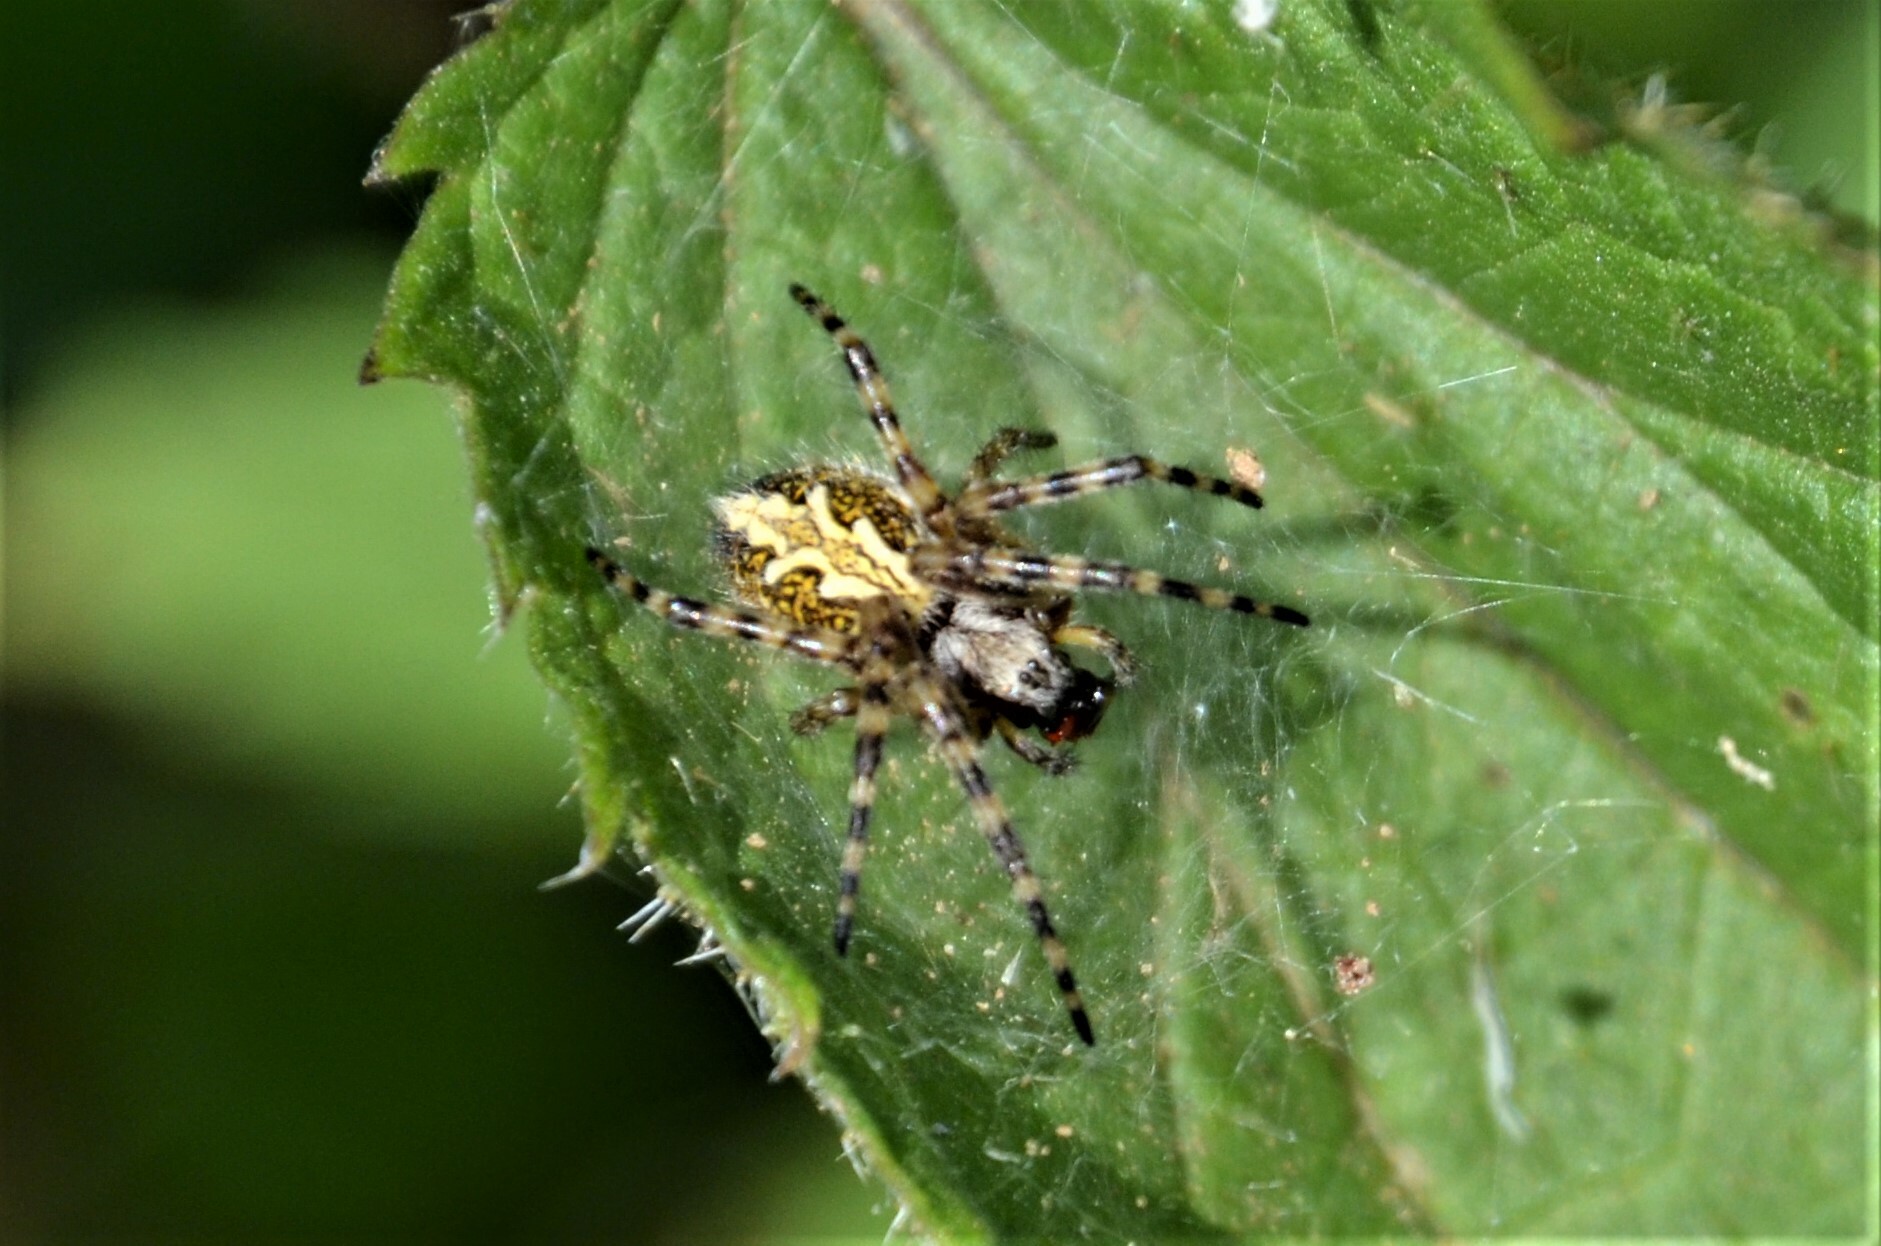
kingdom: Animalia
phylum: Arthropoda
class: Arachnida
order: Araneae
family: Araneidae
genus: Aculepeira
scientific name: Aculepeira ceropegia
